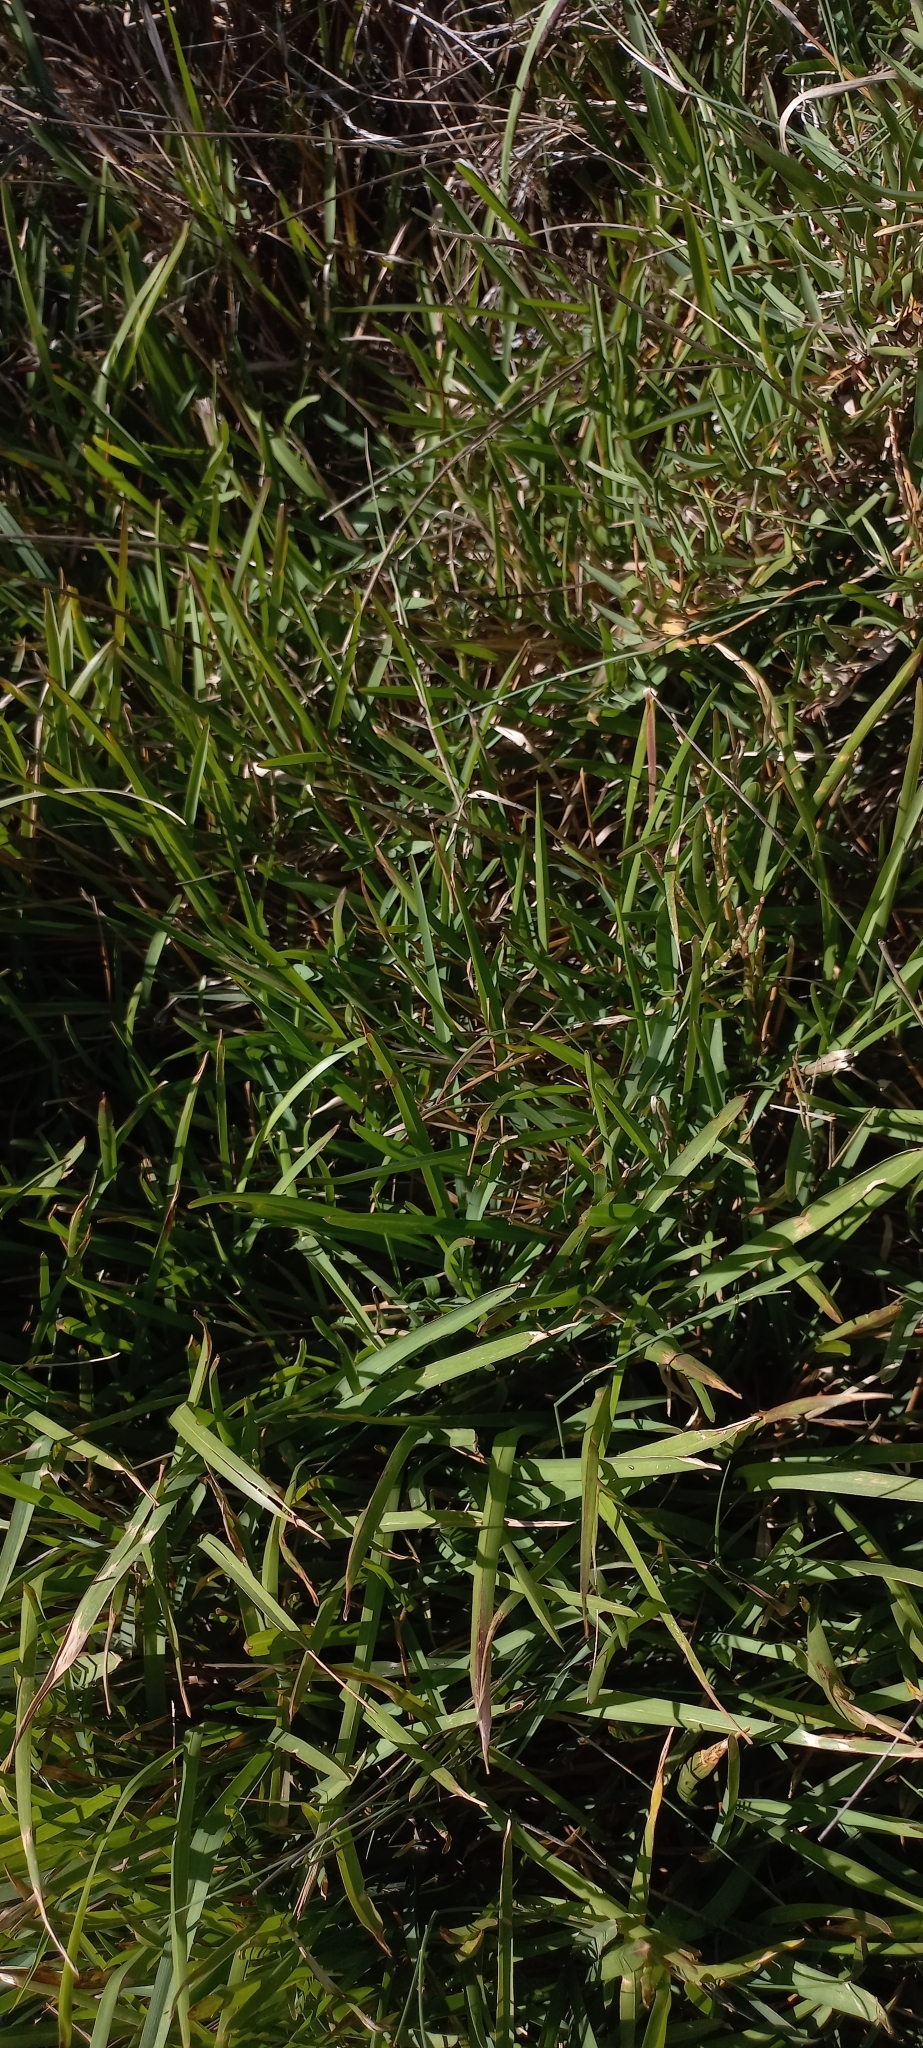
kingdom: Plantae
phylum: Tracheophyta
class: Liliopsida
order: Poales
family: Poaceae
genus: Stenotaphrum
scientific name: Stenotaphrum secundatum
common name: St. augustine grass
